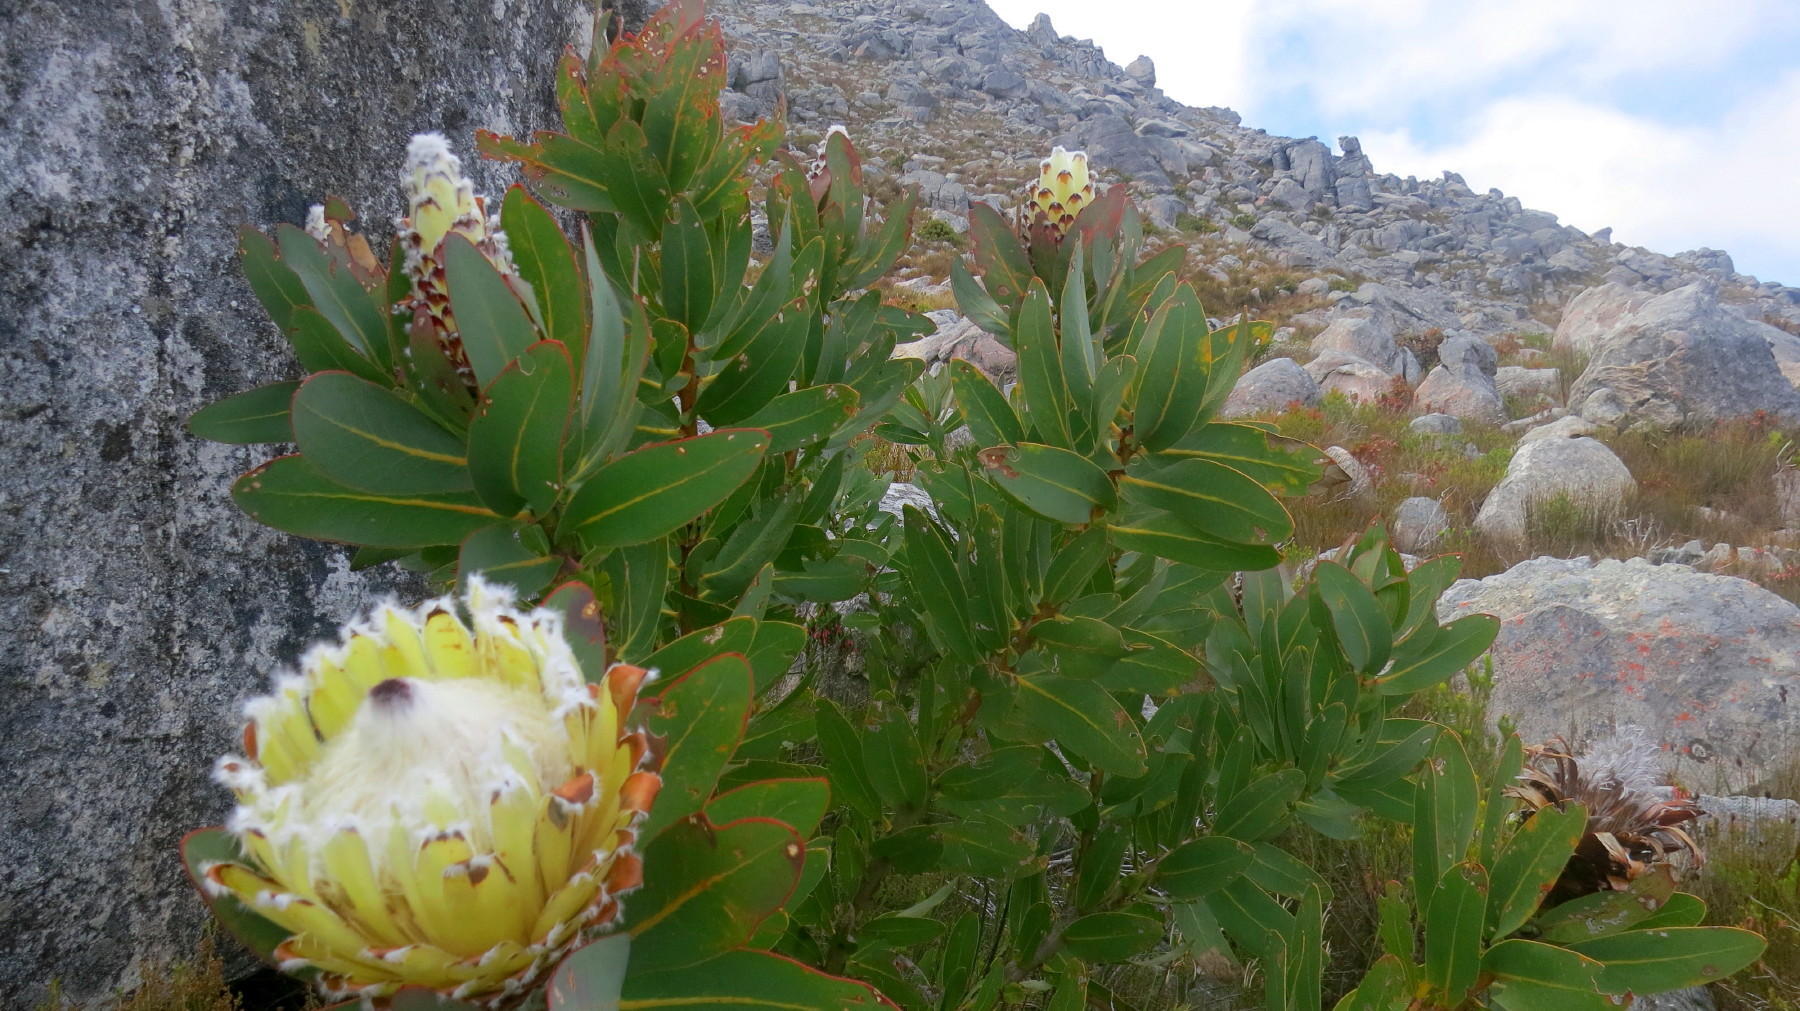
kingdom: Plantae
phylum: Tracheophyta
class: Magnoliopsida
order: Proteales
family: Proteaceae
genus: Protea
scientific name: Protea magnifica
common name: Bearded sugarbush
